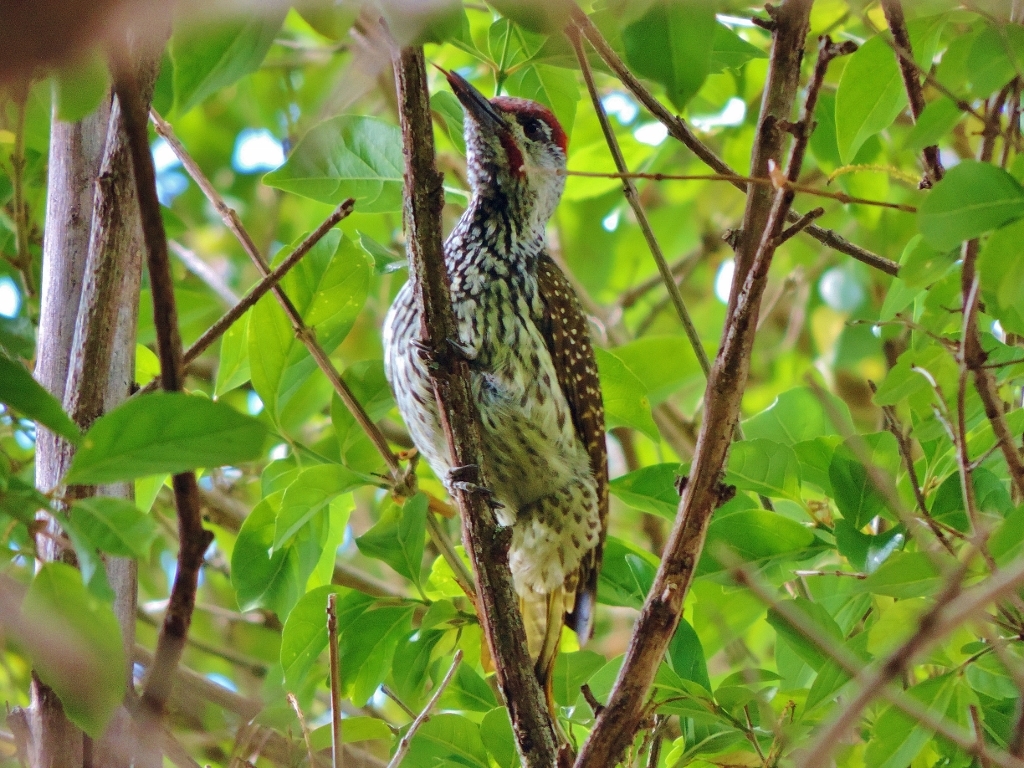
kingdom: Animalia
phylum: Chordata
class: Aves
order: Piciformes
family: Picidae
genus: Campethera
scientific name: Campethera abingoni
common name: Golden-tailed woodpecker
